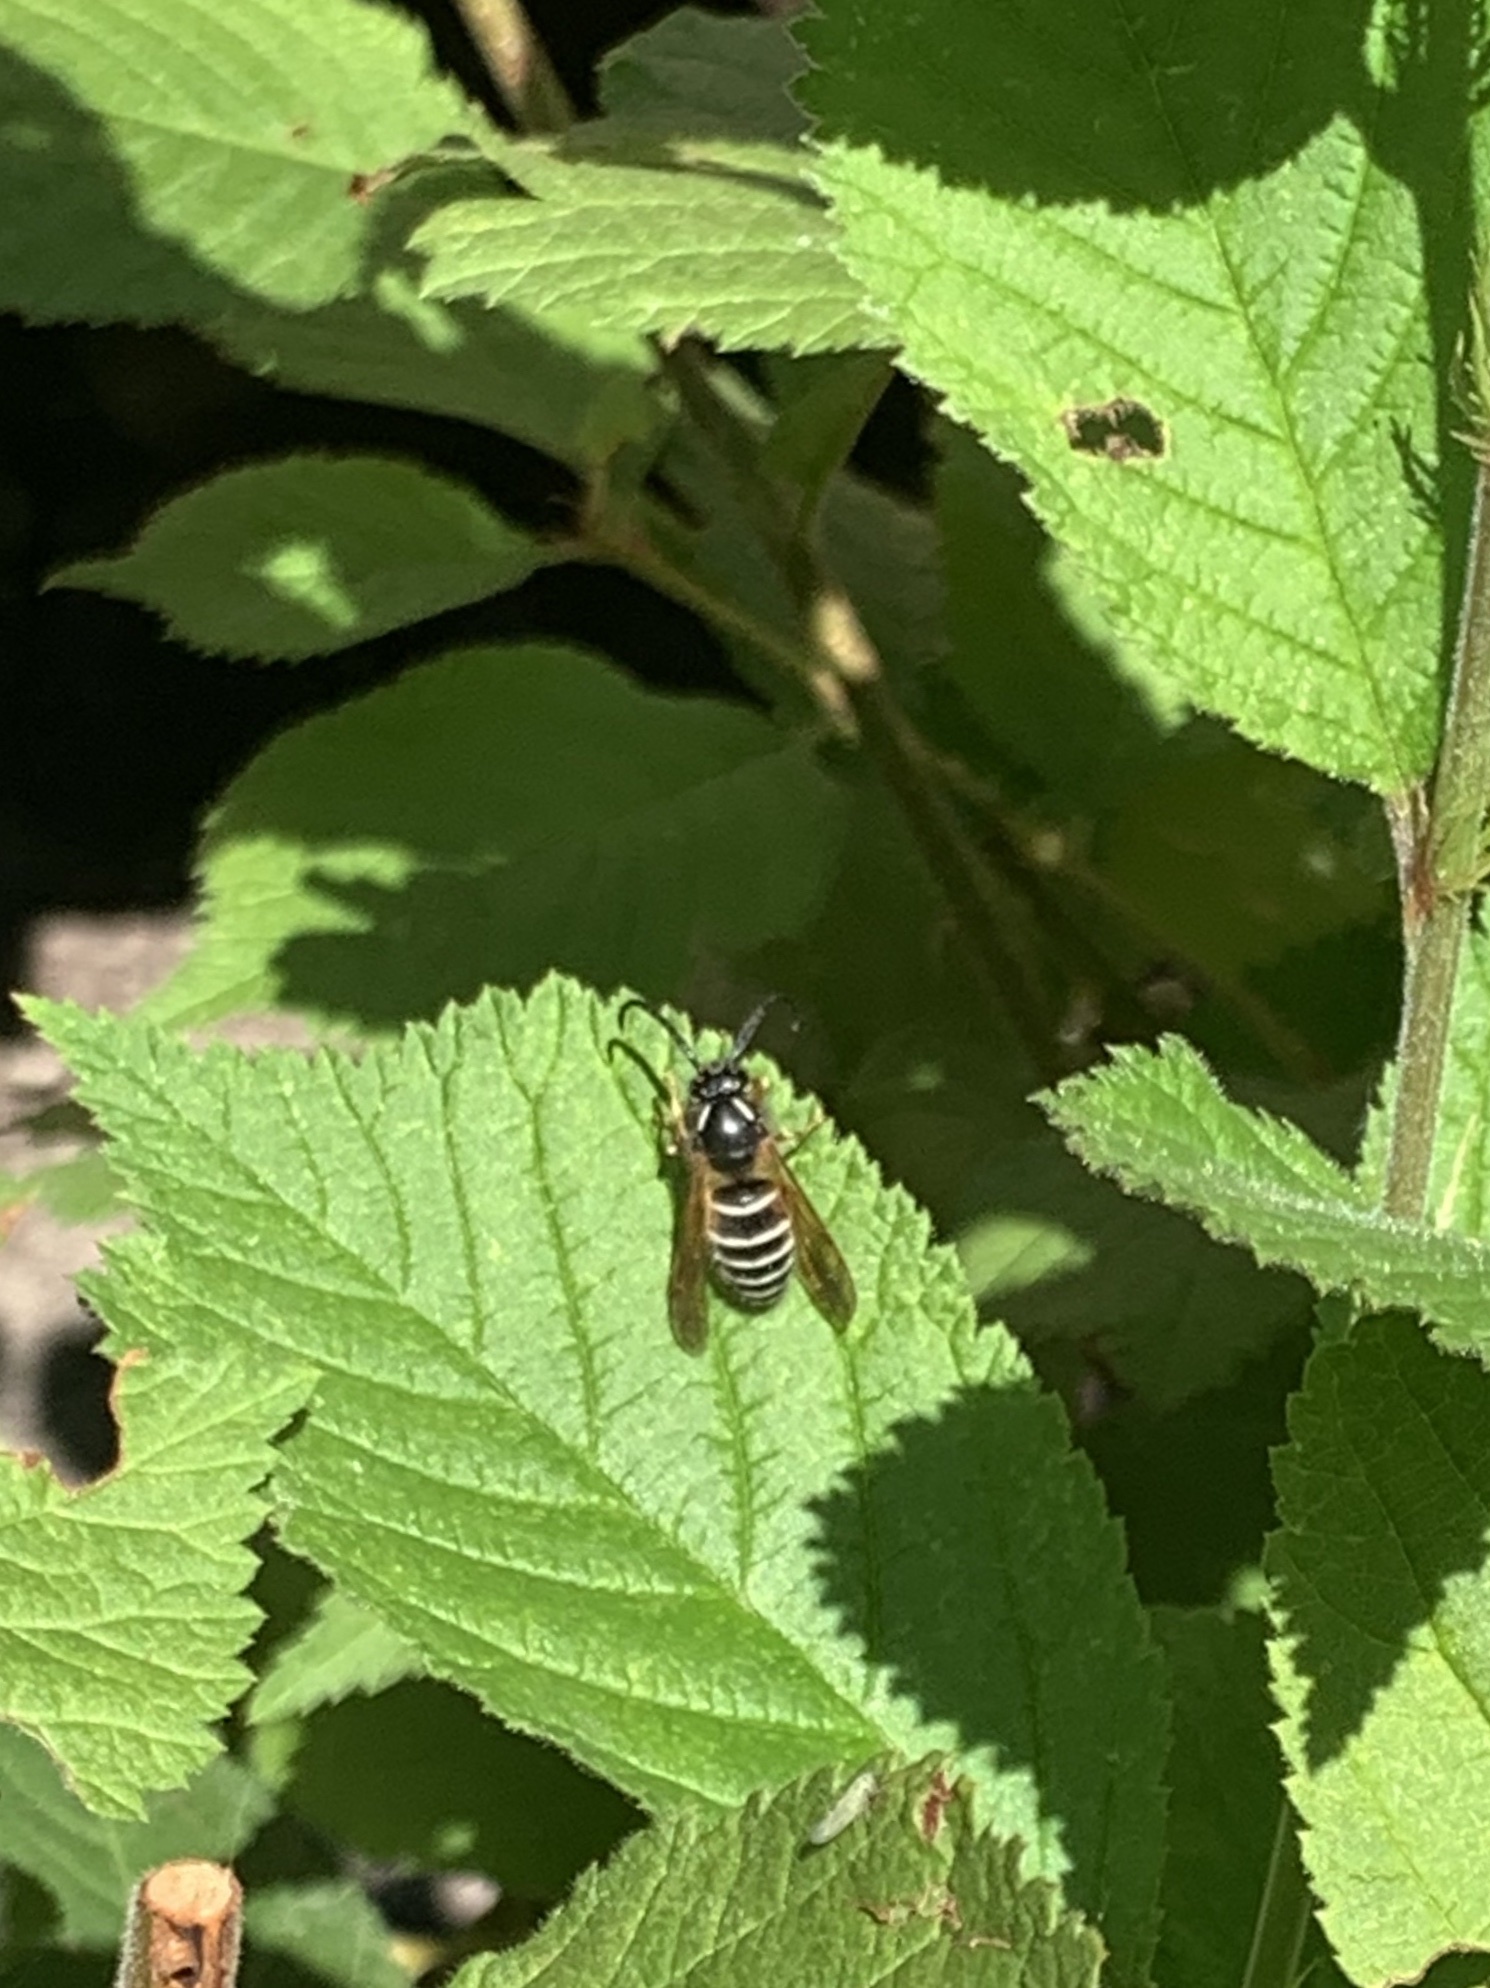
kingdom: Animalia
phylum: Arthropoda
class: Insecta
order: Hymenoptera
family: Vespidae
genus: Dolichovespula
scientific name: Dolichovespula norwegica
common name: Norwegian wasp
